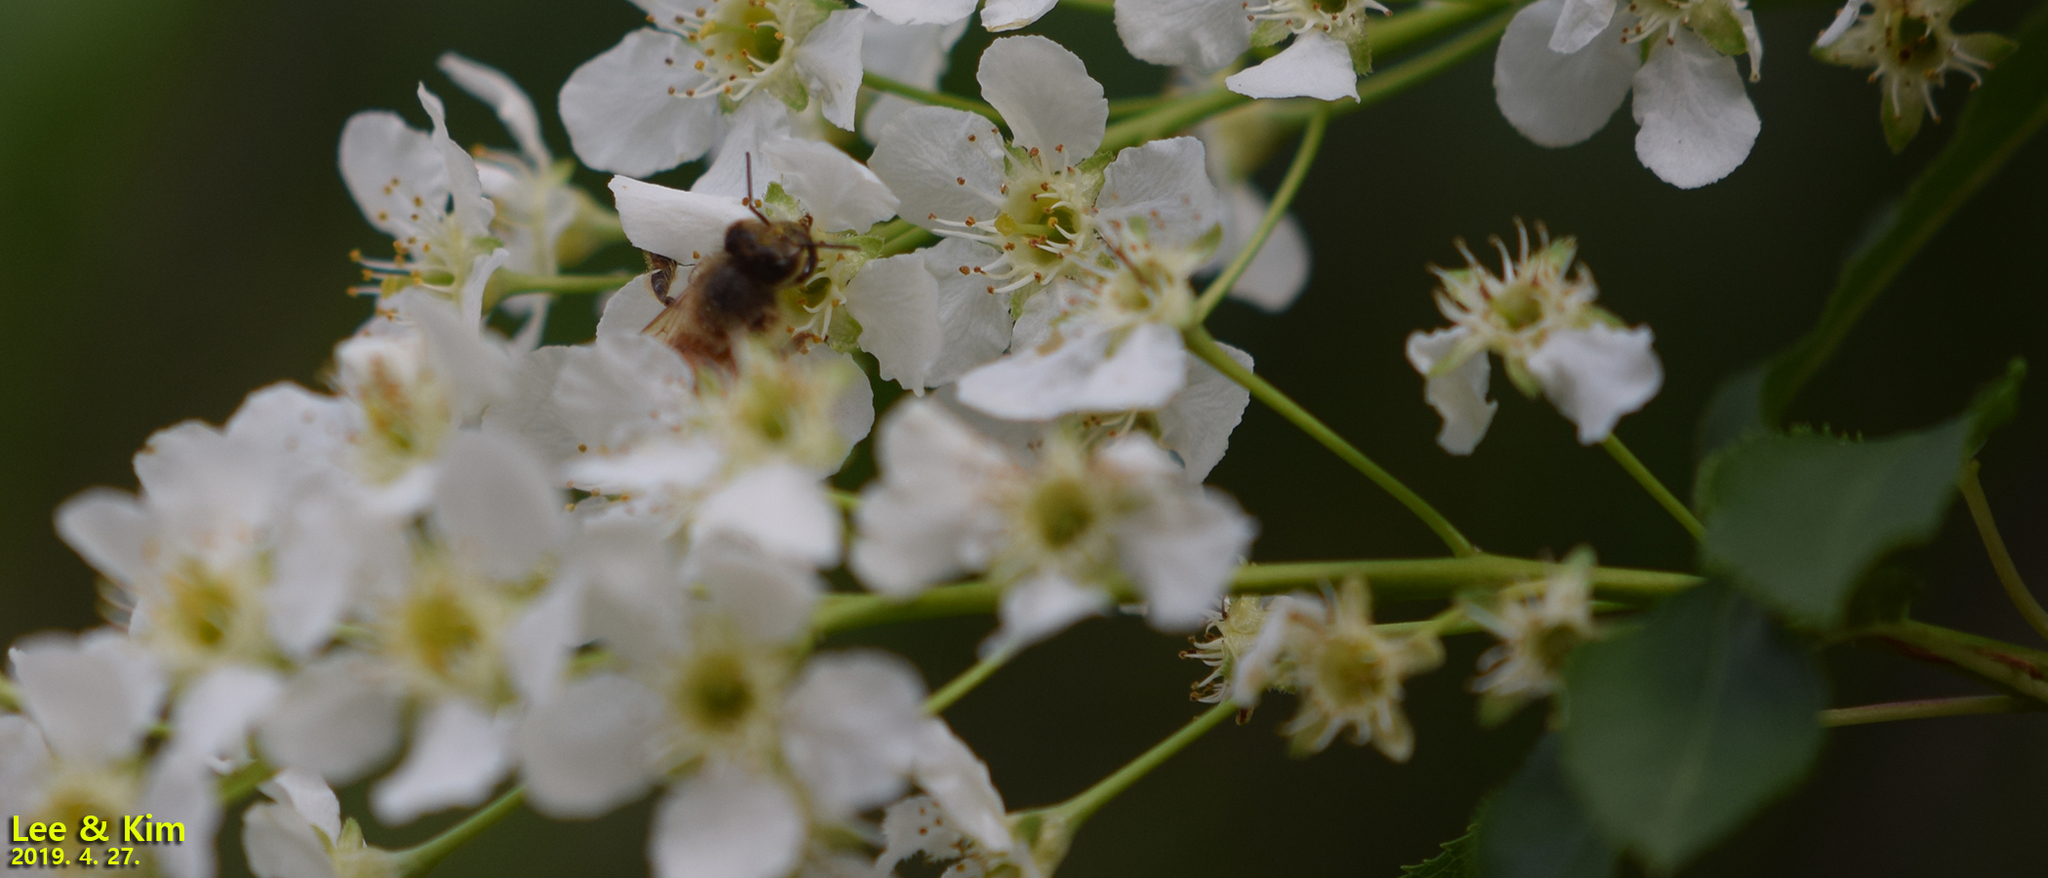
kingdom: Animalia
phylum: Arthropoda
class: Insecta
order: Hymenoptera
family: Apidae
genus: Apis
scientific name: Apis mellifera
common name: Honey bee
